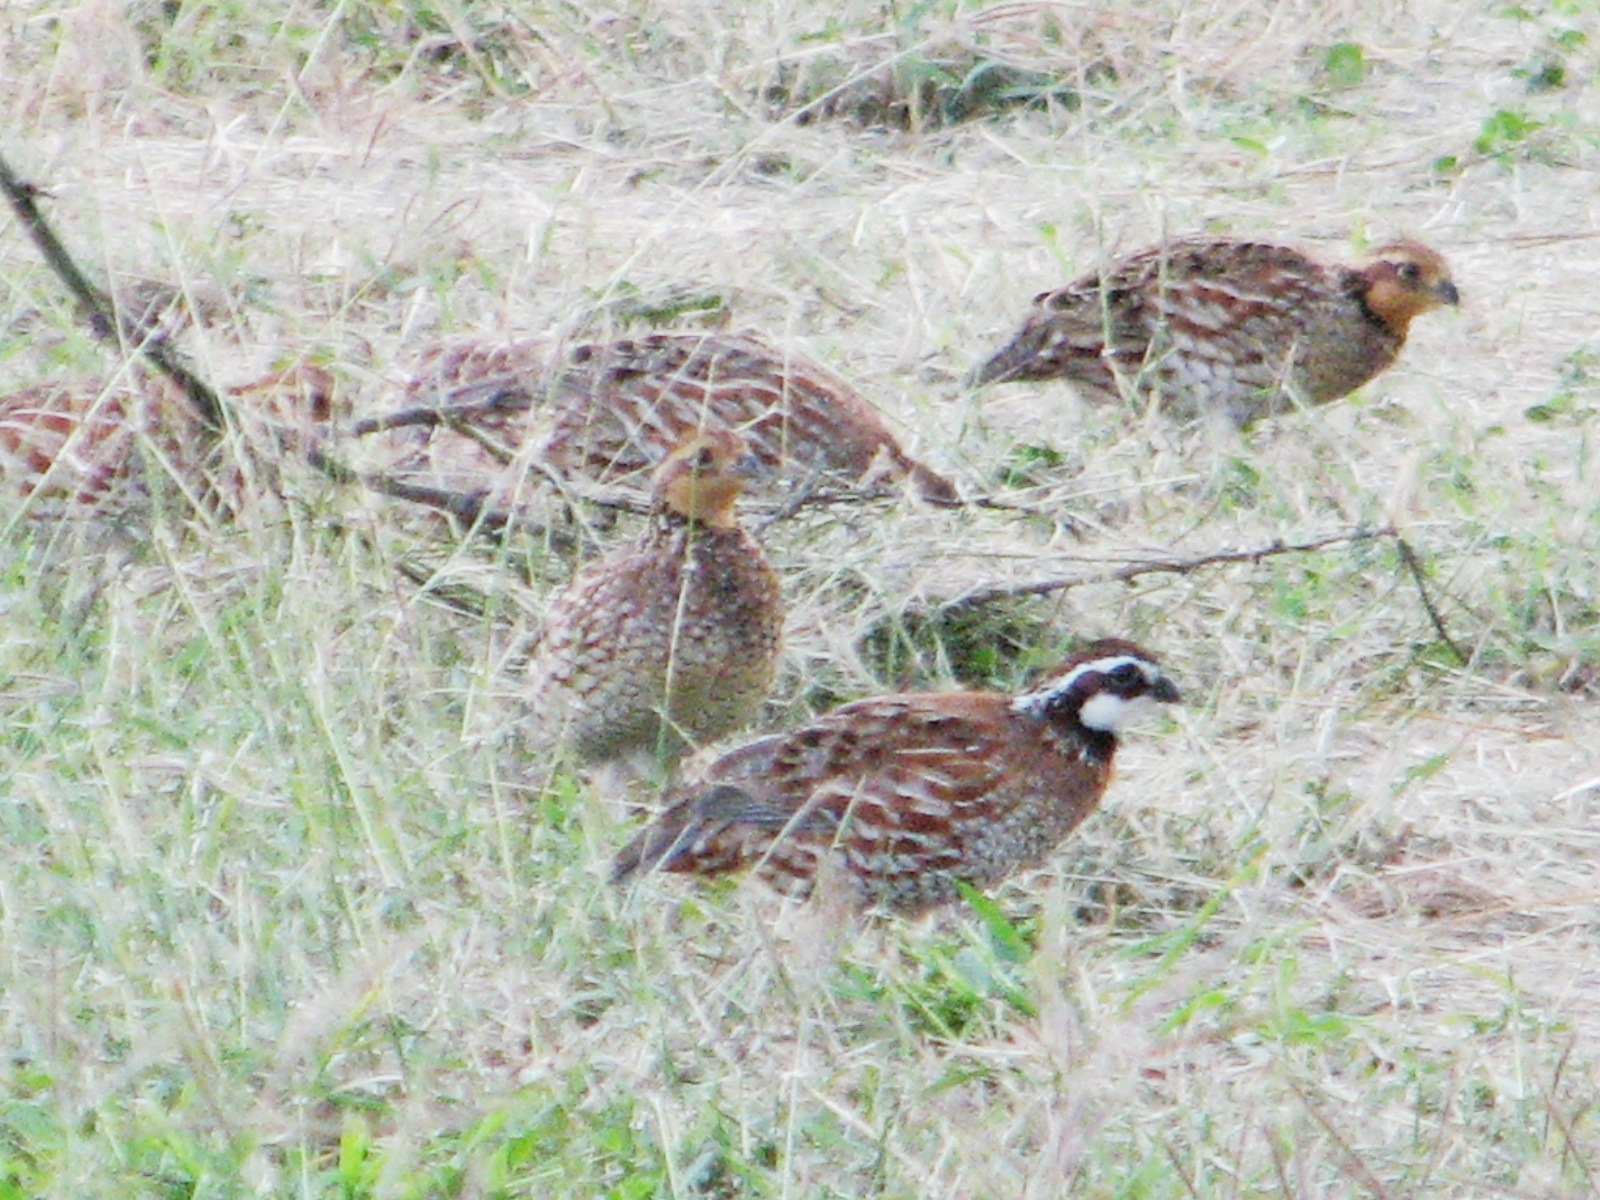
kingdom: Animalia
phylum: Chordata
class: Aves
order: Galliformes
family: Odontophoridae
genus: Colinus
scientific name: Colinus virginianus
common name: Northern bobwhite
